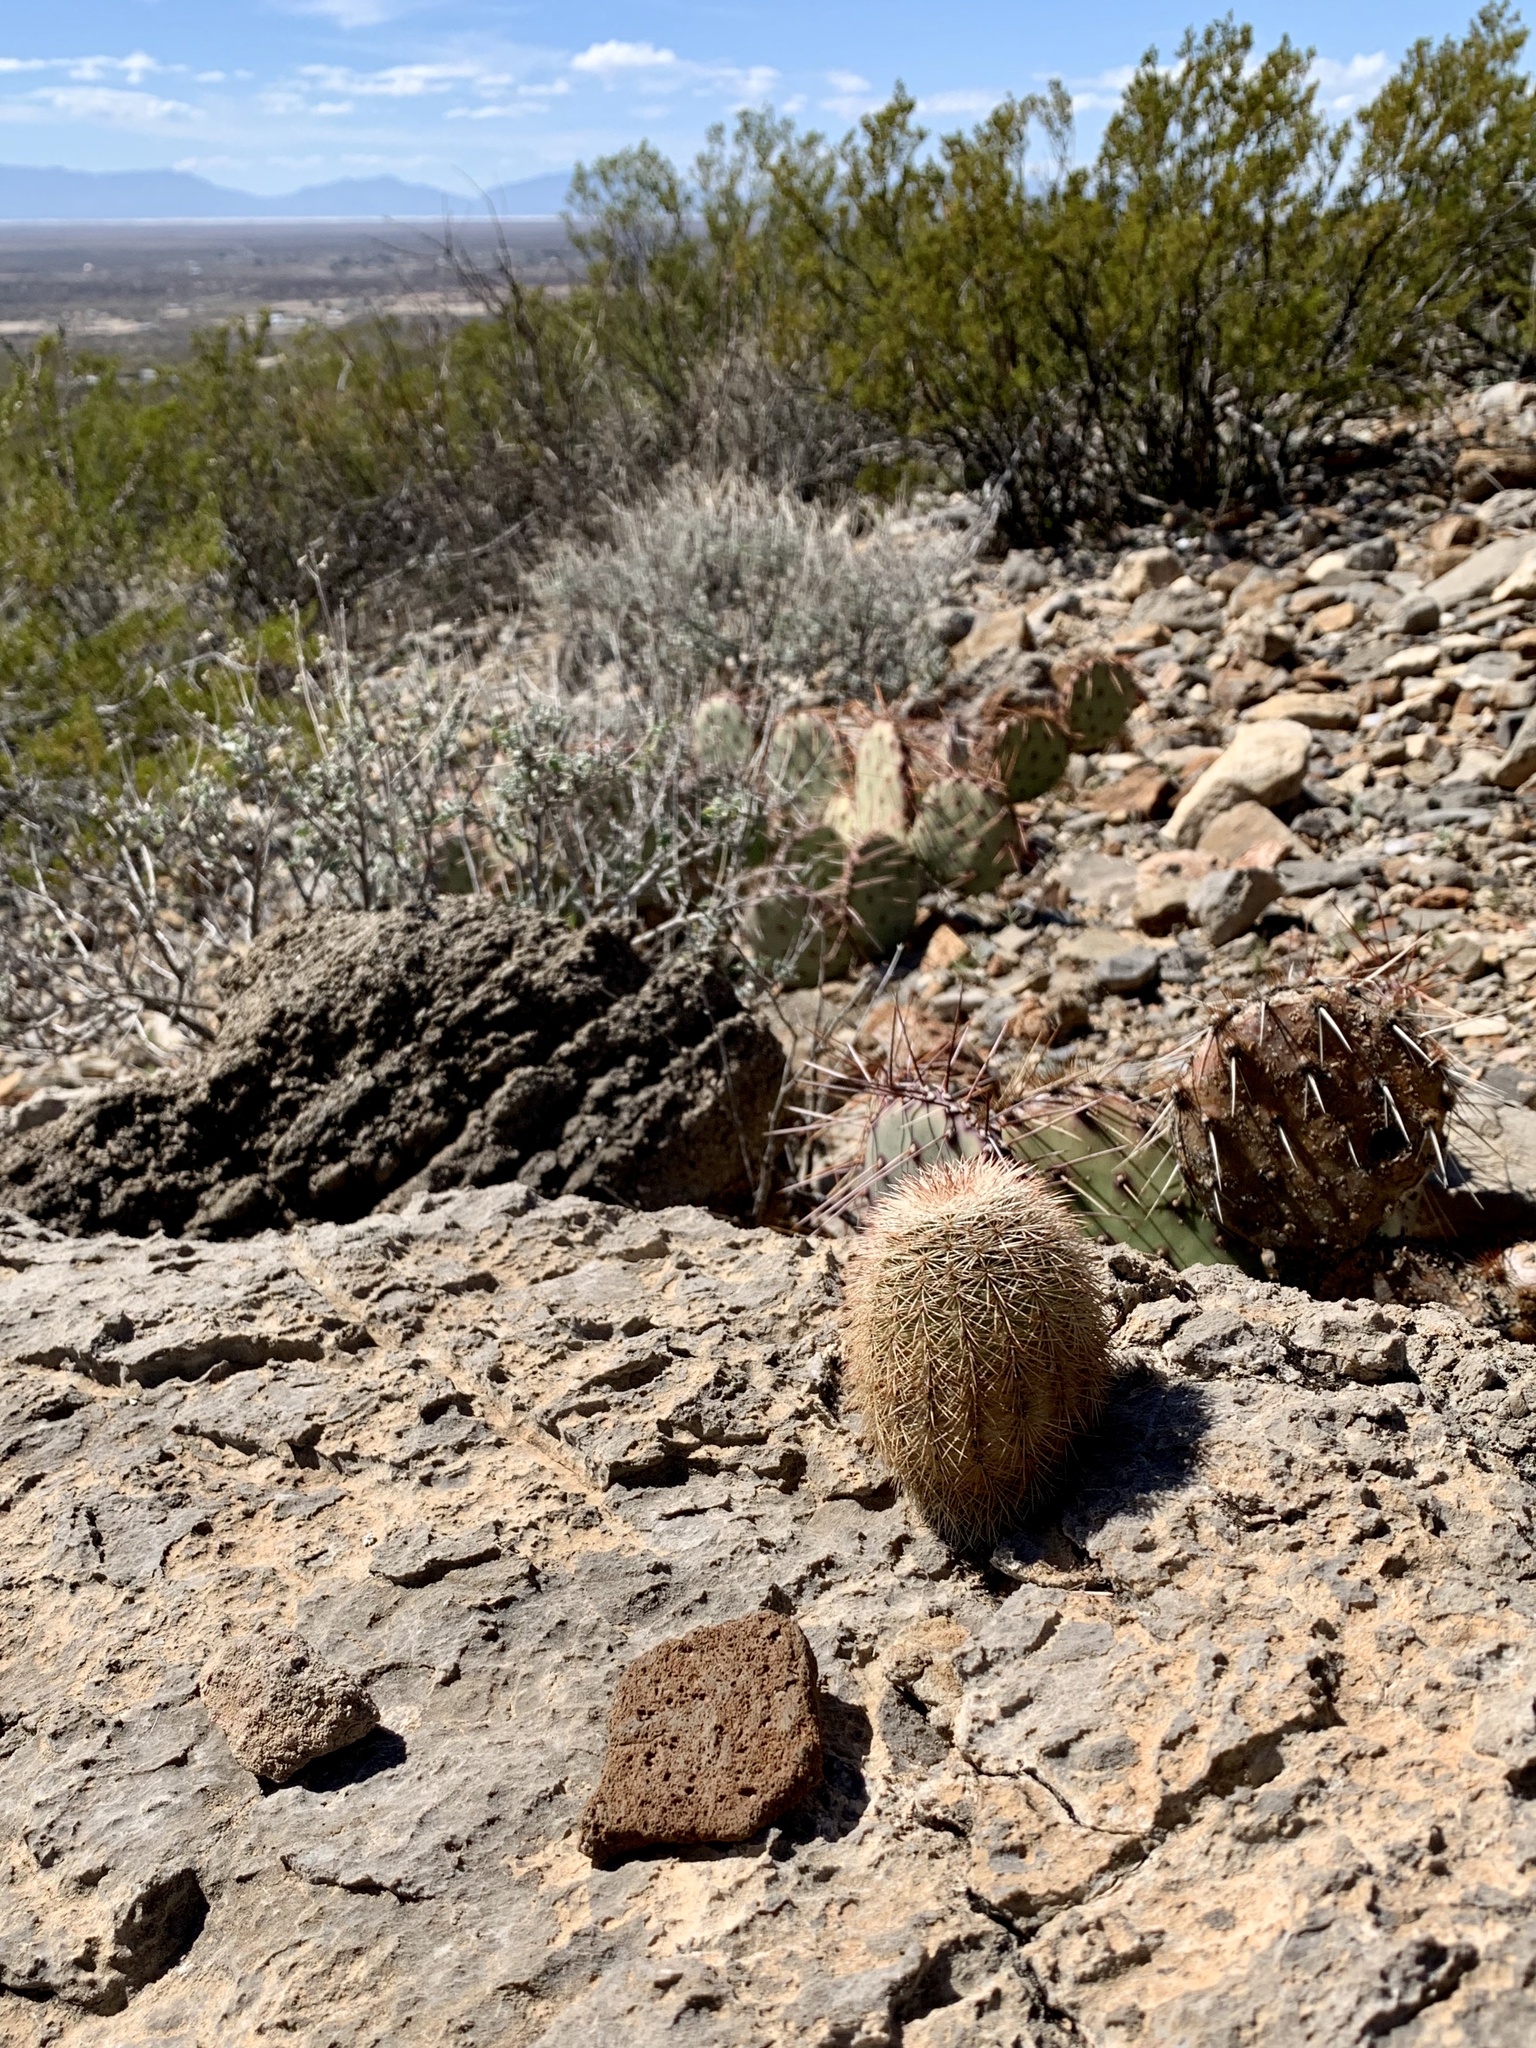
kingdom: Plantae
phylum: Tracheophyta
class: Magnoliopsida
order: Caryophyllales
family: Cactaceae
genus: Echinocereus
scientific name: Echinocereus dasyacanthus
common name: Spiny hedgehog cactus
